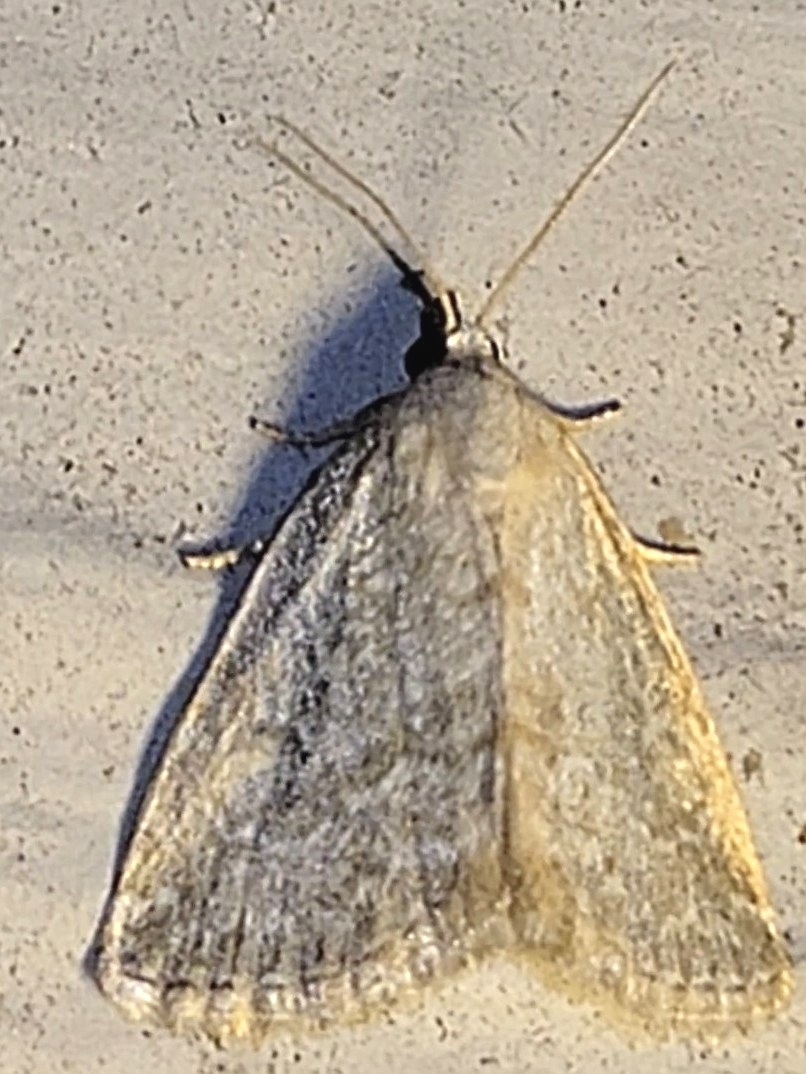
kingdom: Animalia
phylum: Arthropoda
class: Insecta
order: Lepidoptera
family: Noctuidae
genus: Protodeltote
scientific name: Protodeltote albidula
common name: Pale glyph
